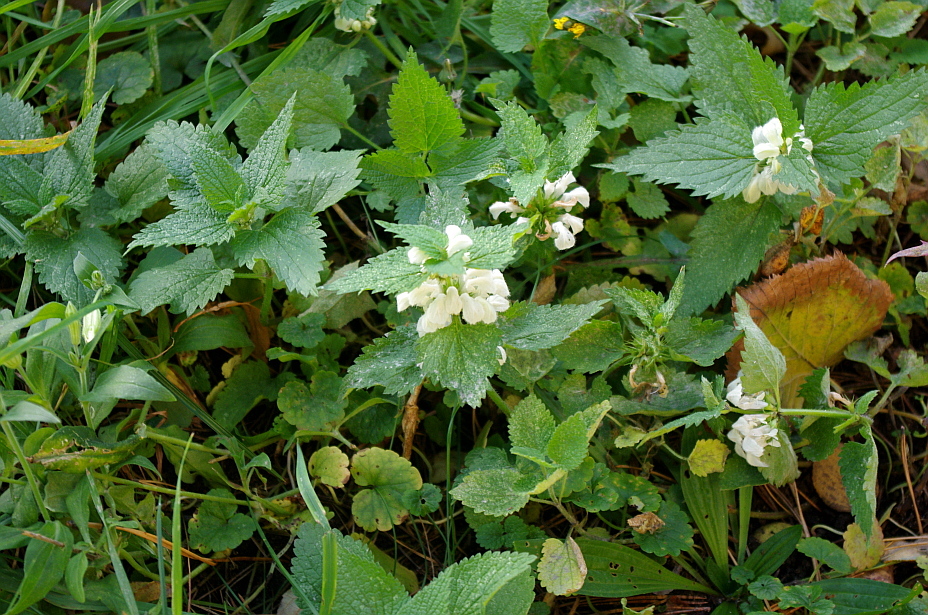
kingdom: Plantae
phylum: Tracheophyta
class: Magnoliopsida
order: Lamiales
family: Lamiaceae
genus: Lamium
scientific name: Lamium album
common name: White dead-nettle
